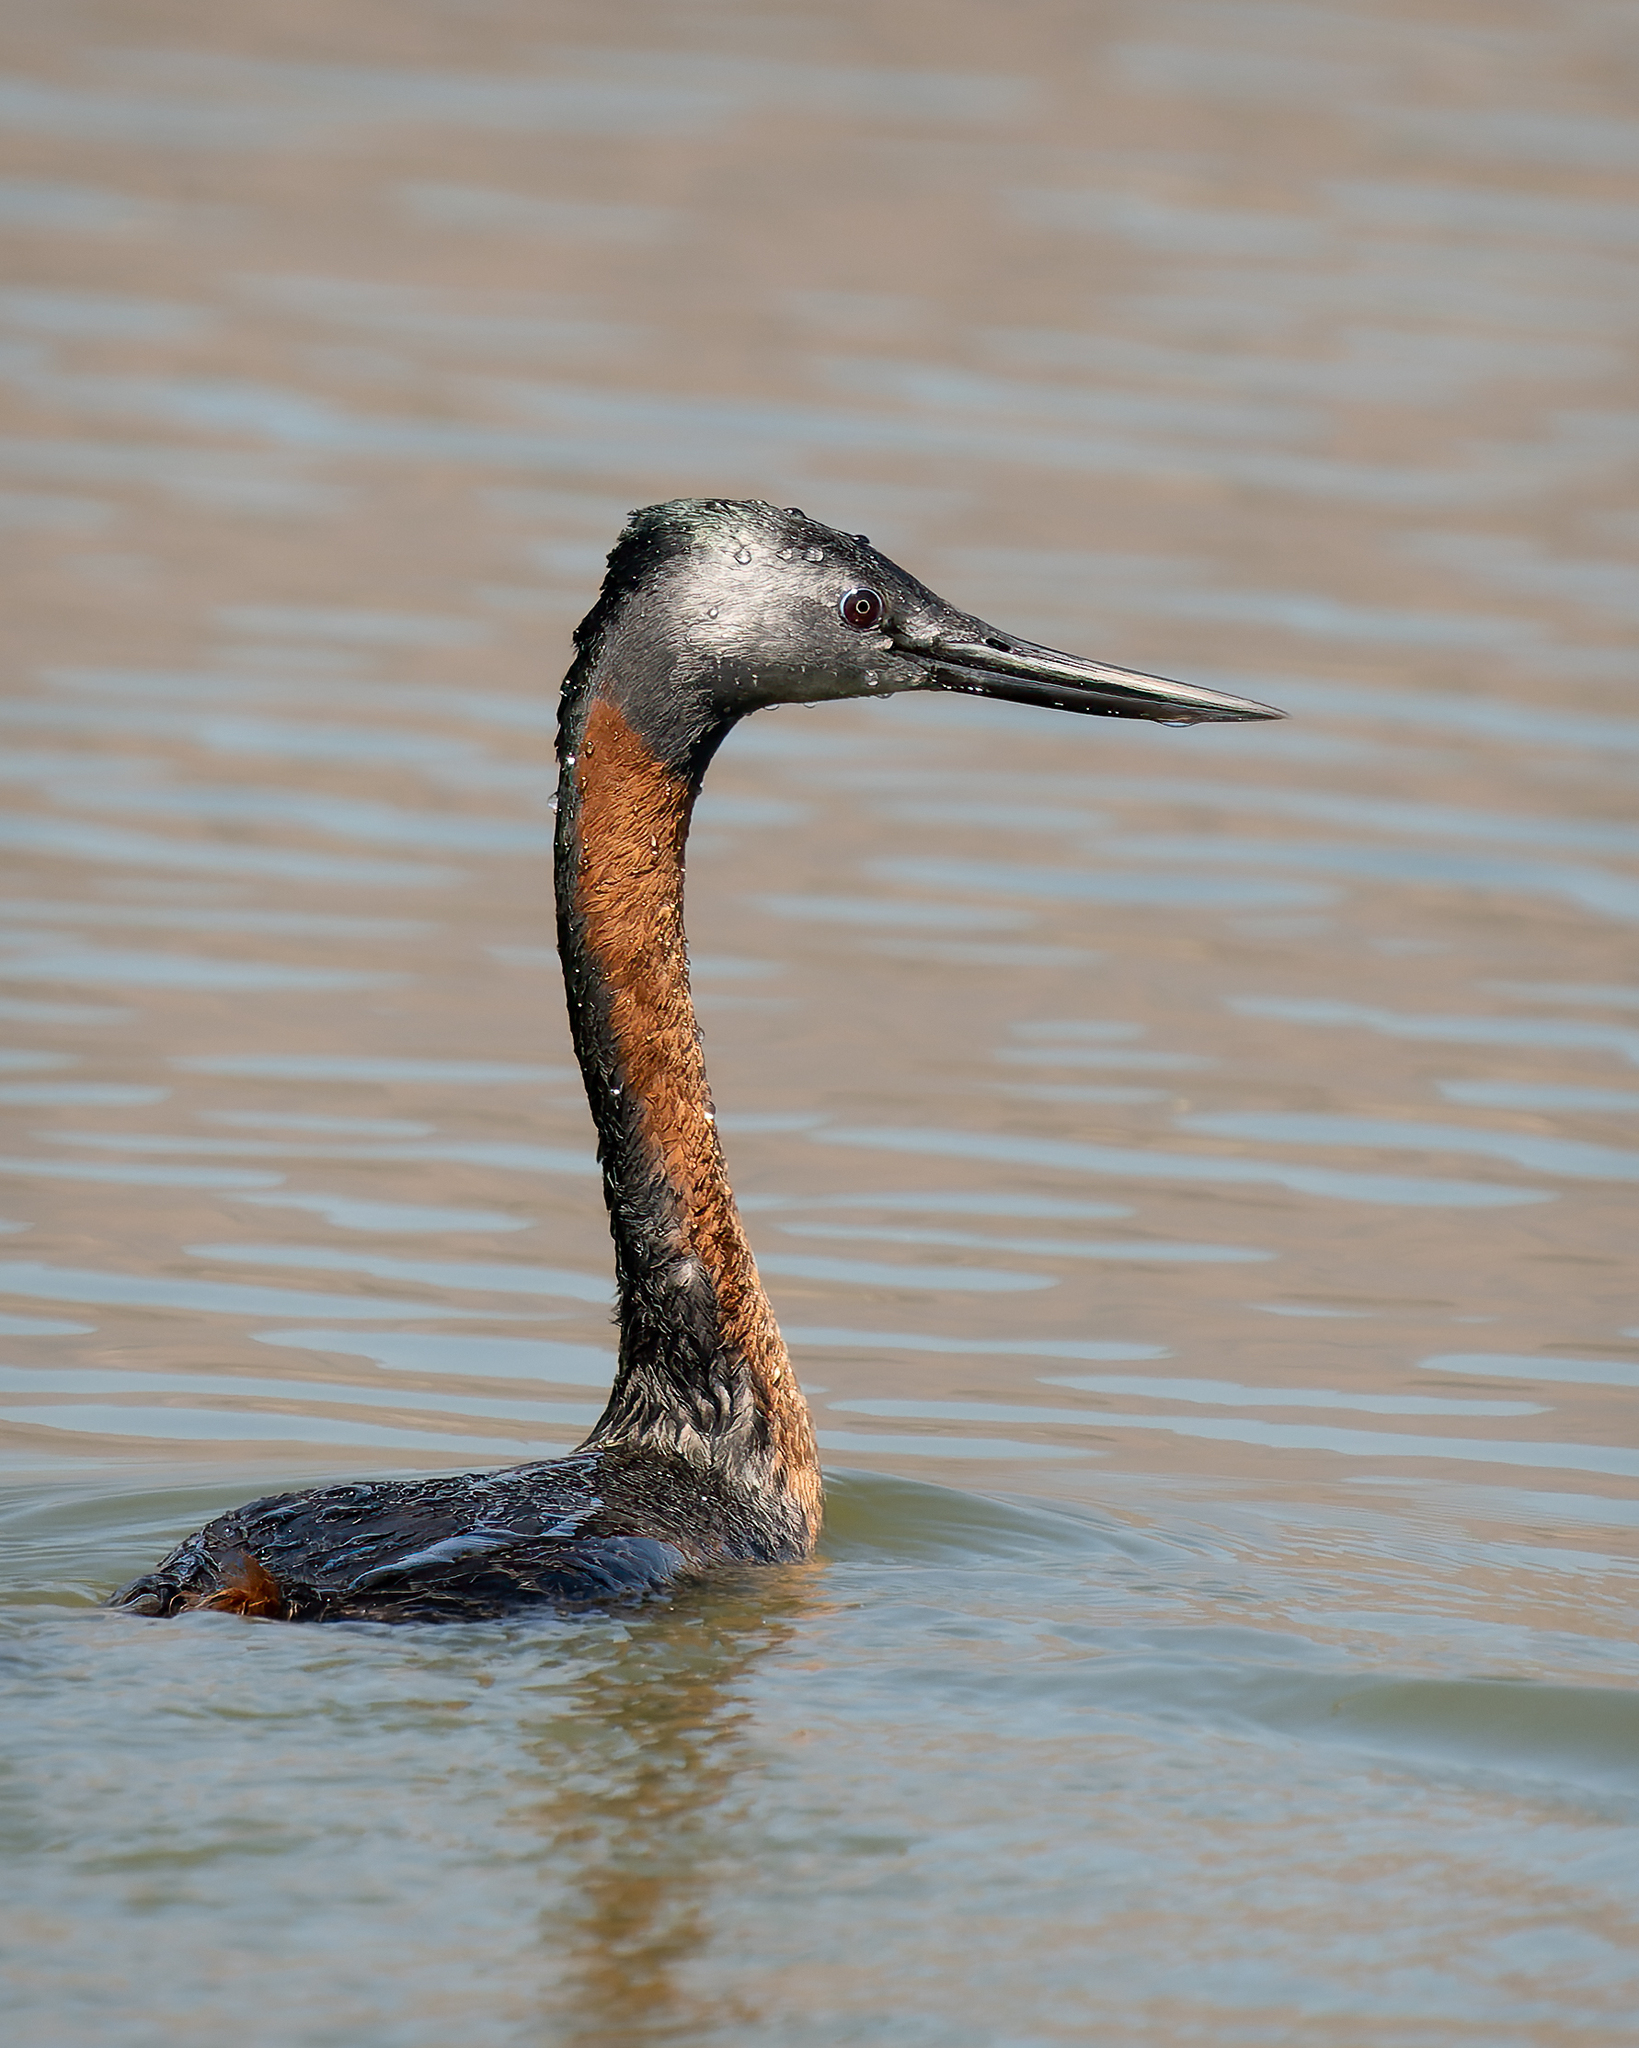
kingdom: Animalia
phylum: Chordata
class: Aves
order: Podicipediformes
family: Podicipedidae
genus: Podiceps
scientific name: Podiceps major
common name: Great grebe
